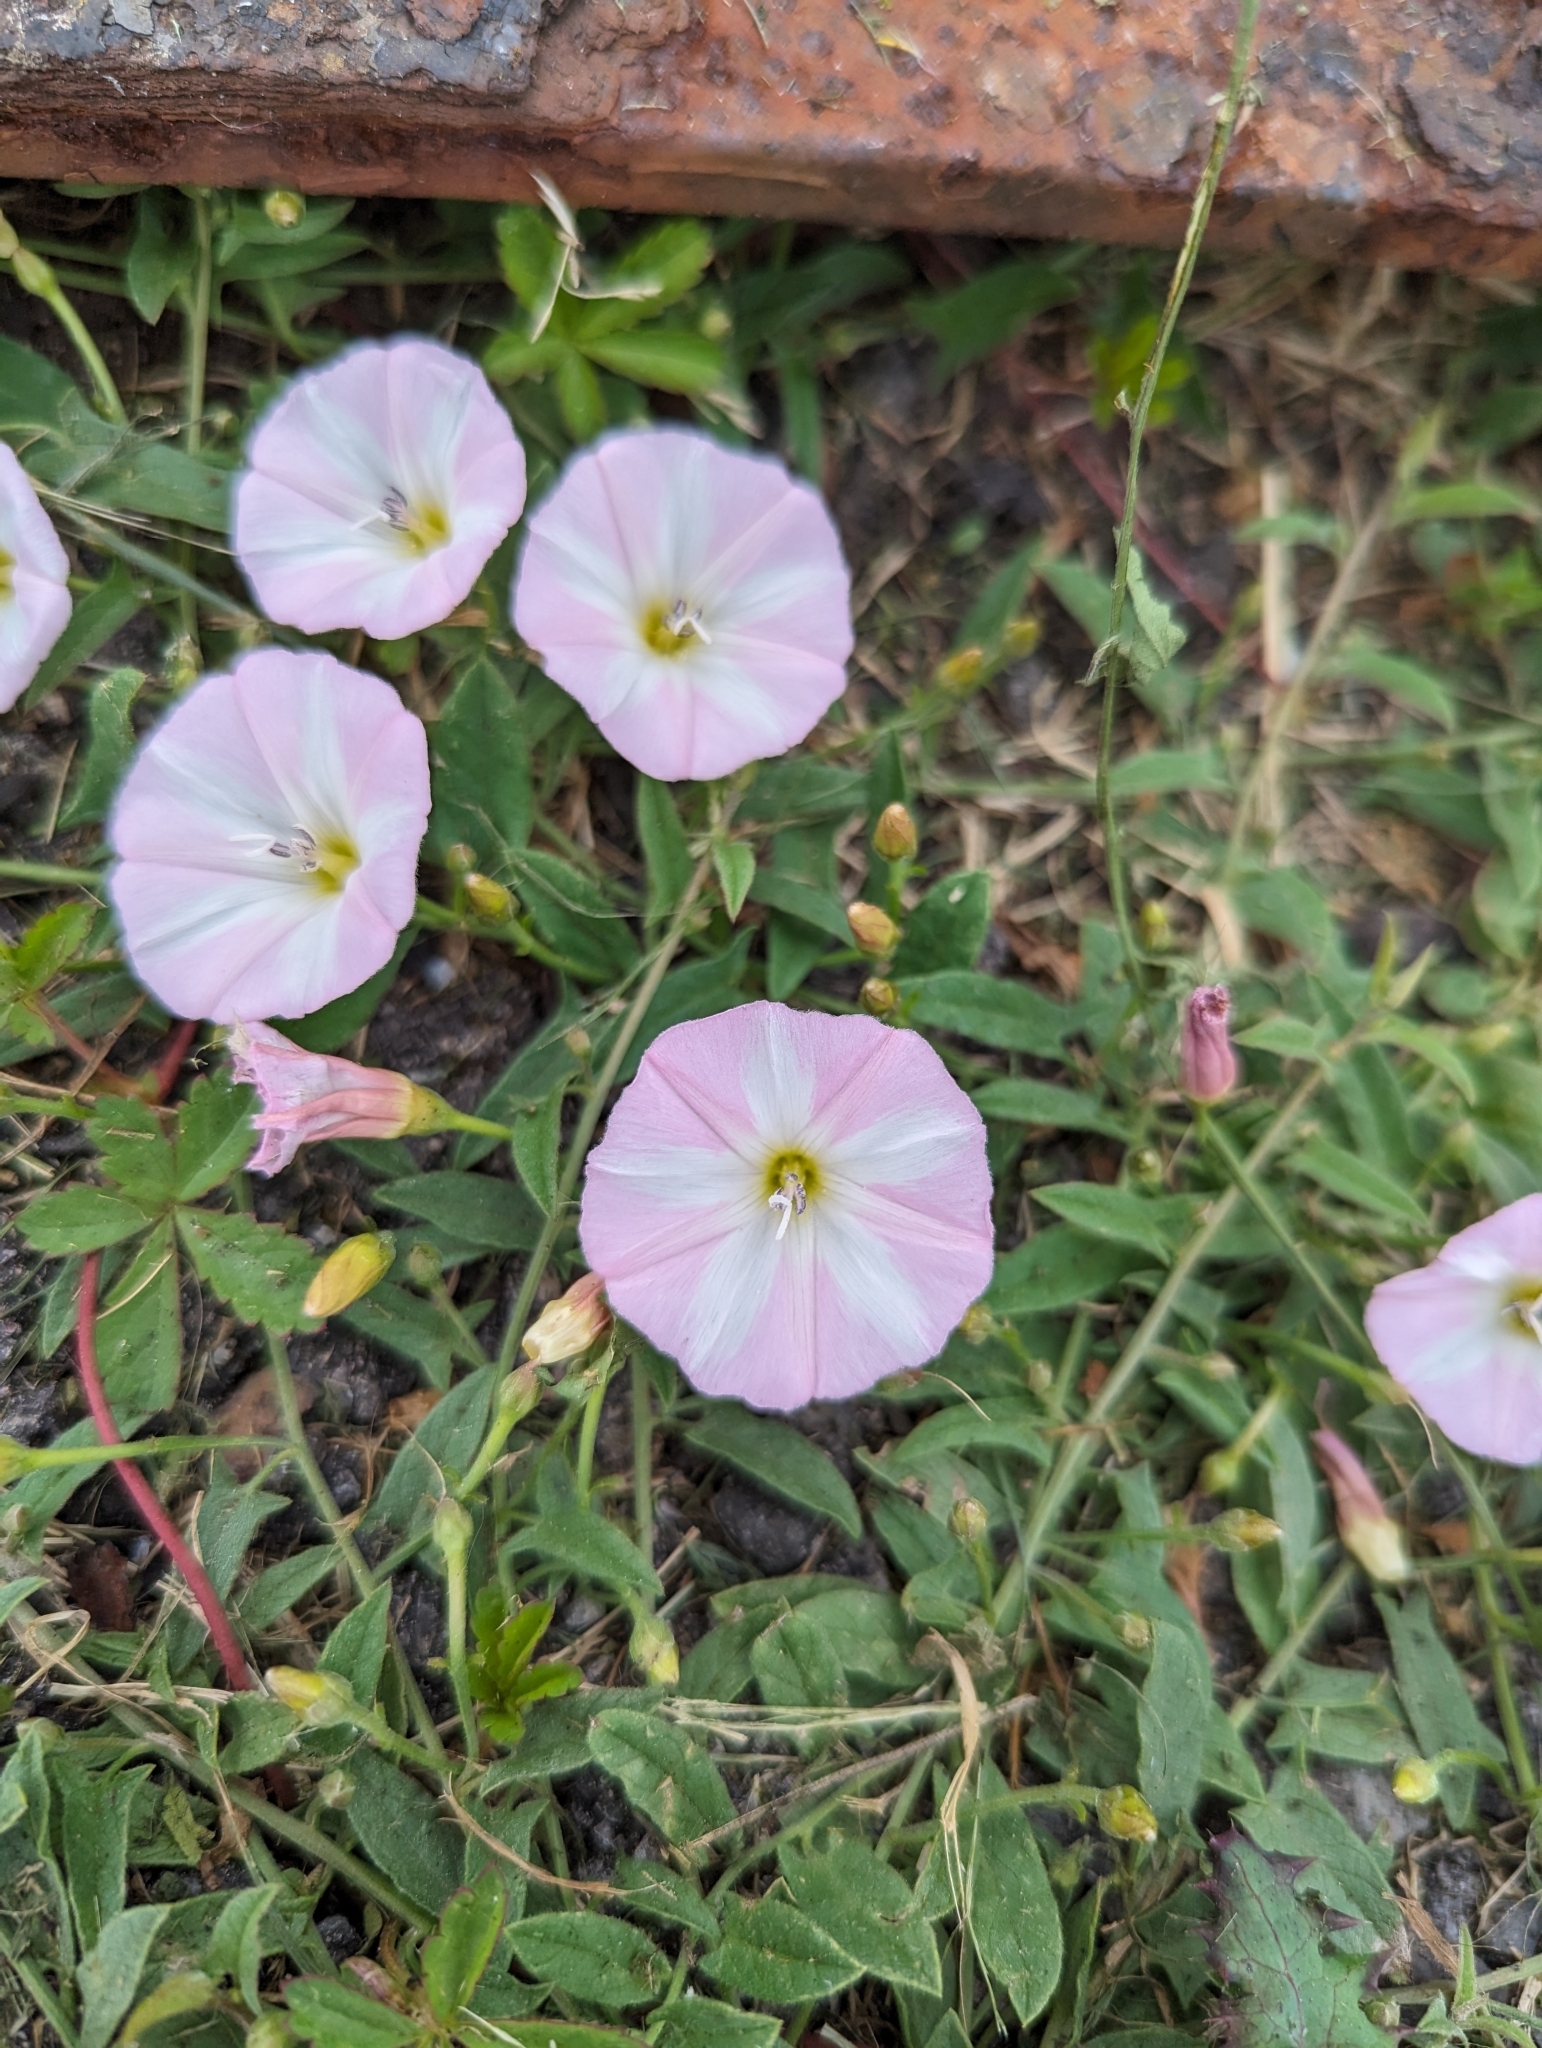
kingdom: Plantae
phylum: Tracheophyta
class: Magnoliopsida
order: Solanales
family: Convolvulaceae
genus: Convolvulus
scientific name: Convolvulus arvensis
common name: Field bindweed
